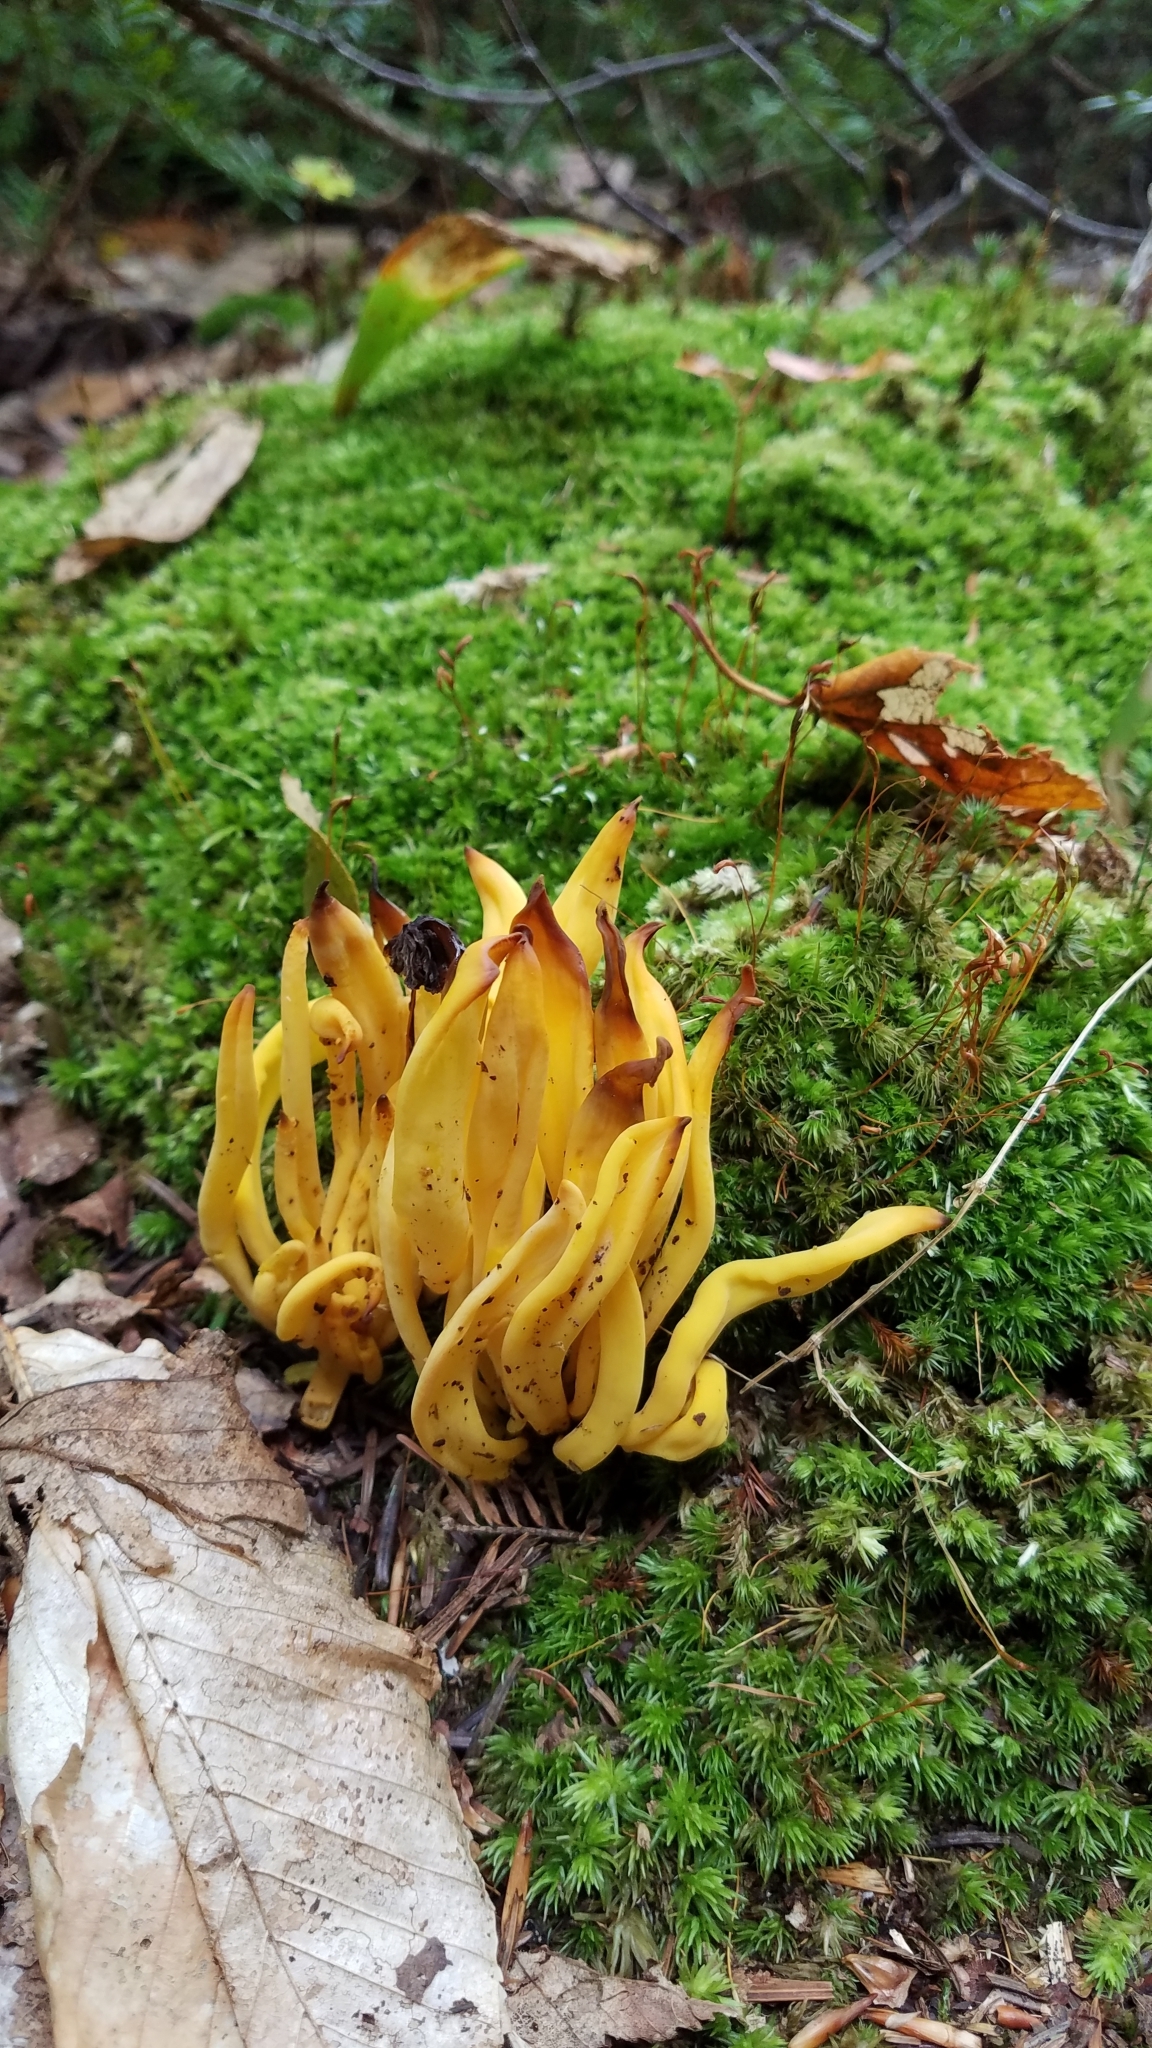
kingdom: Fungi
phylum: Basidiomycota
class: Agaricomycetes
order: Agaricales
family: Clavariaceae
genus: Clavulinopsis
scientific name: Clavulinopsis fusiformis
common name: Golden spindles
